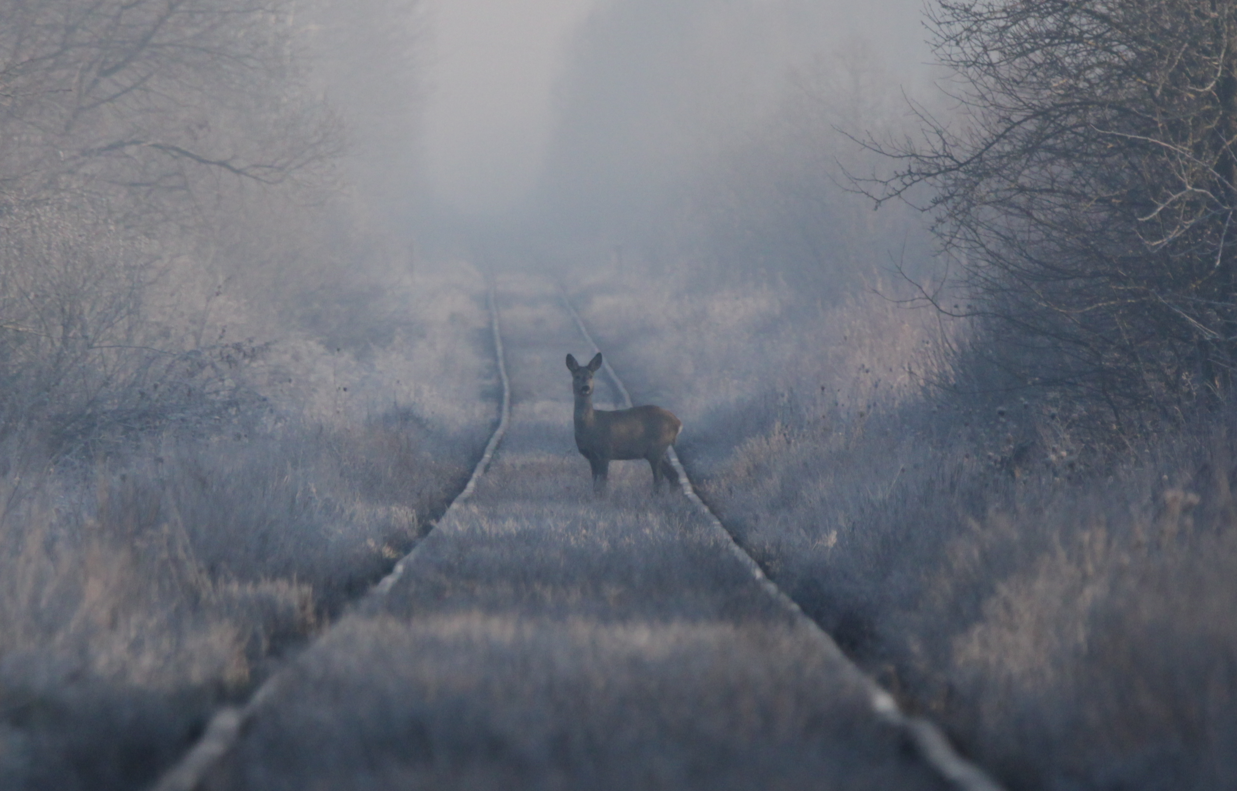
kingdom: Animalia
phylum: Chordata
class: Mammalia
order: Artiodactyla
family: Cervidae
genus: Capreolus
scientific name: Capreolus capreolus
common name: Western roe deer
